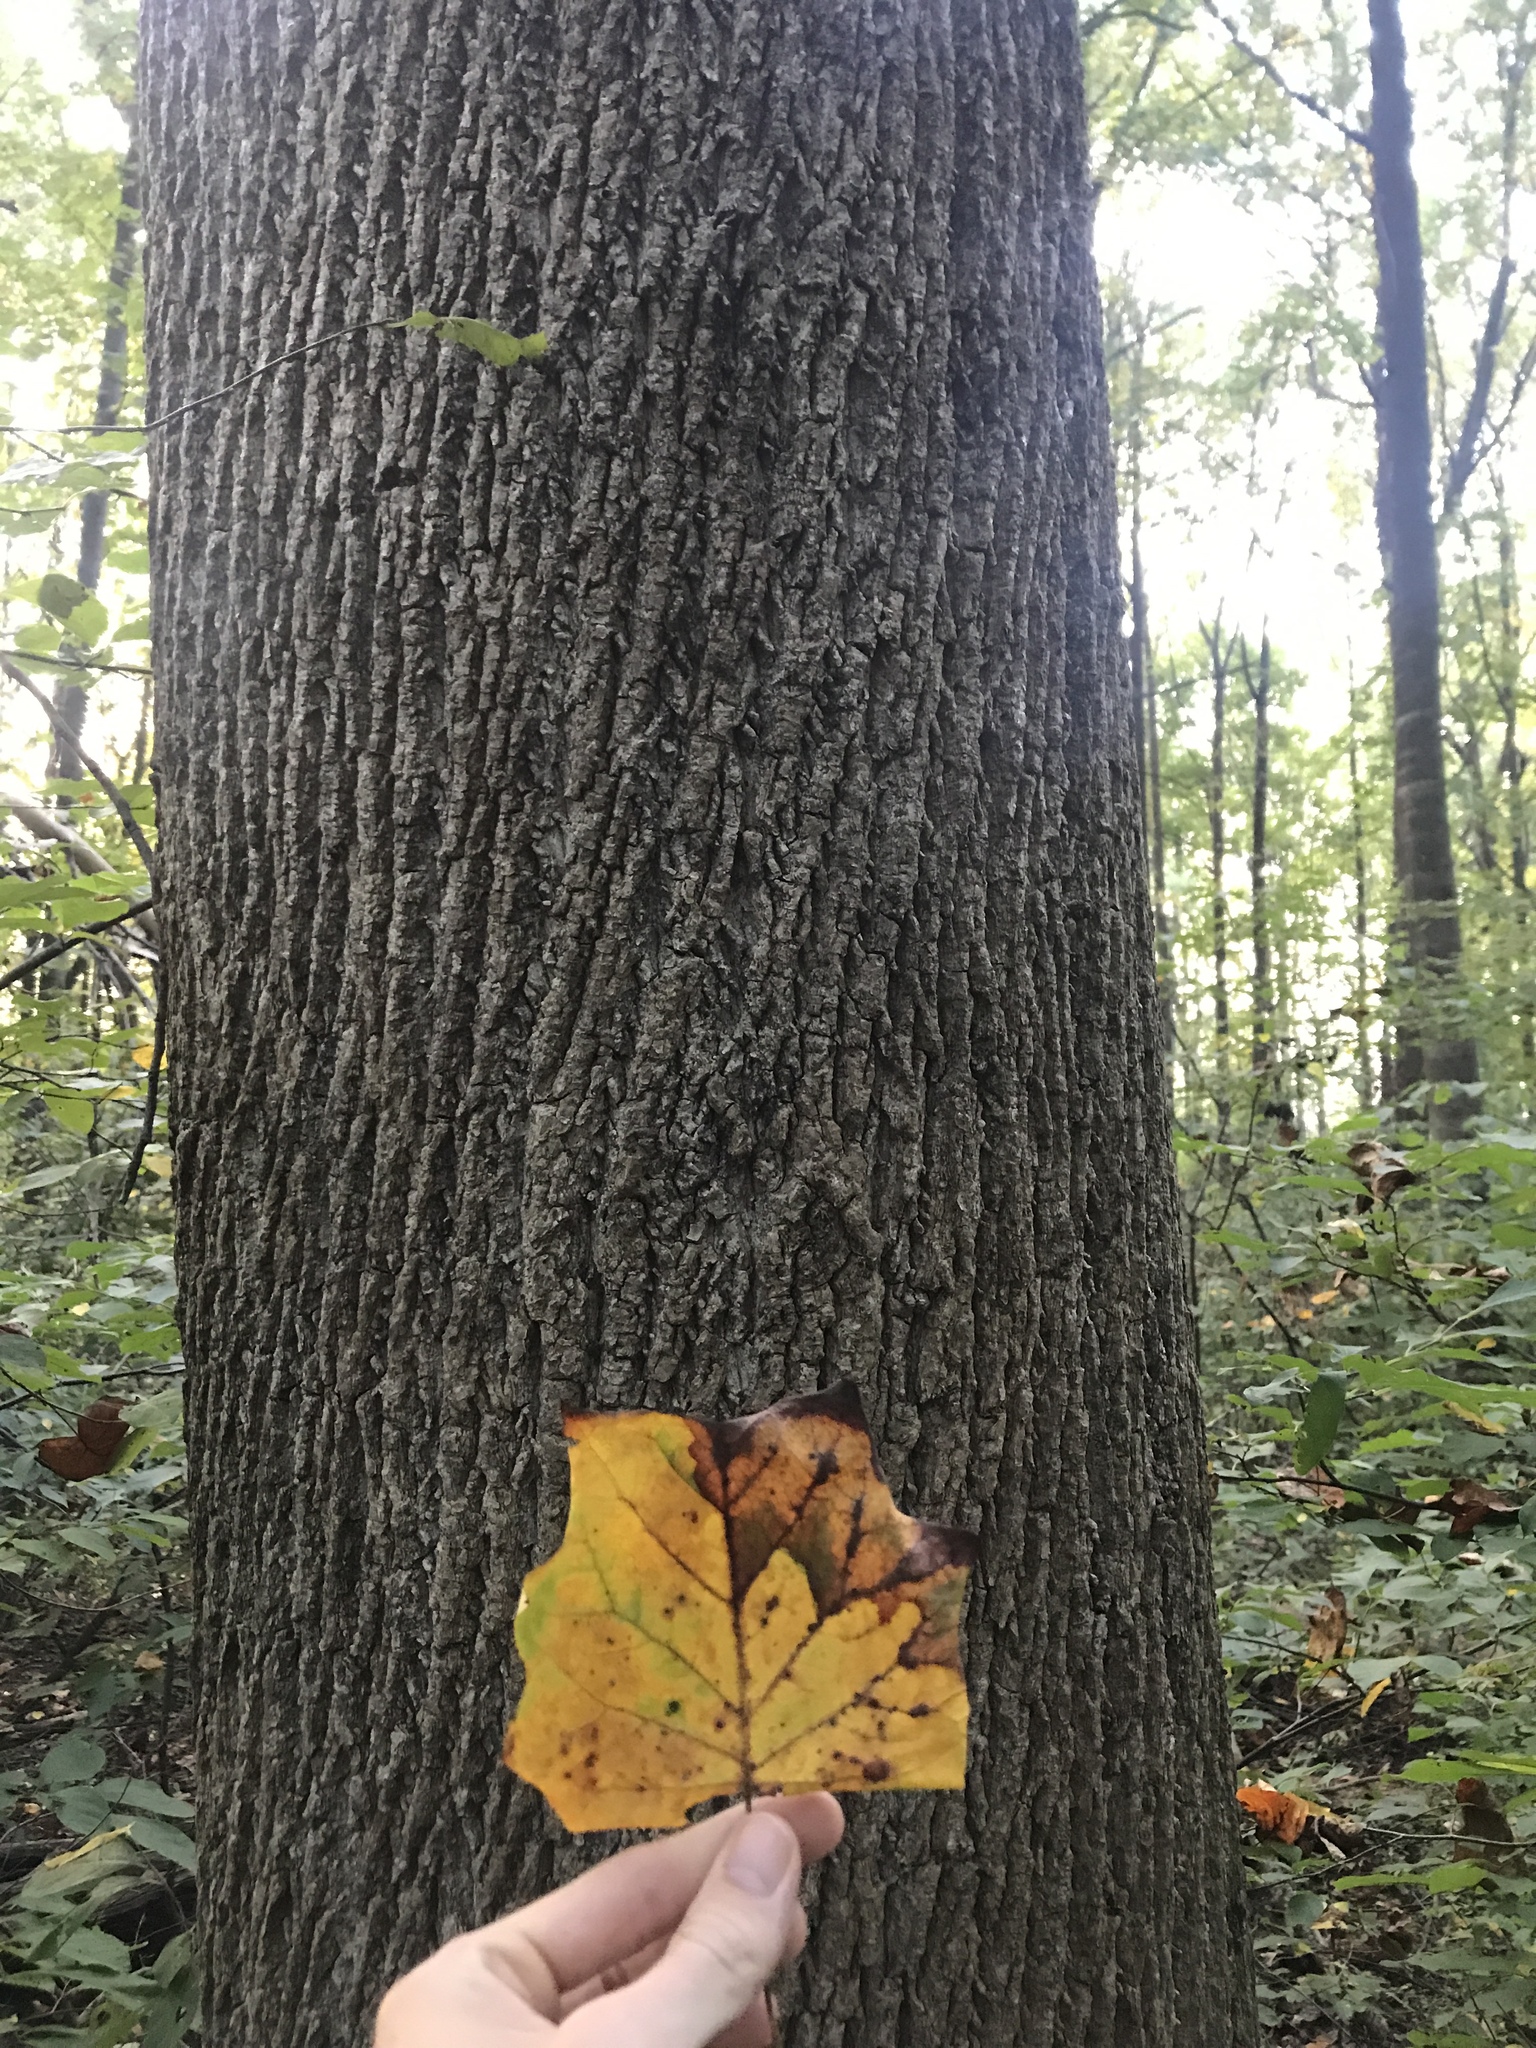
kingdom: Plantae
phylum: Tracheophyta
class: Magnoliopsida
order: Magnoliales
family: Magnoliaceae
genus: Liriodendron
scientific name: Liriodendron tulipifera
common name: Tulip tree
